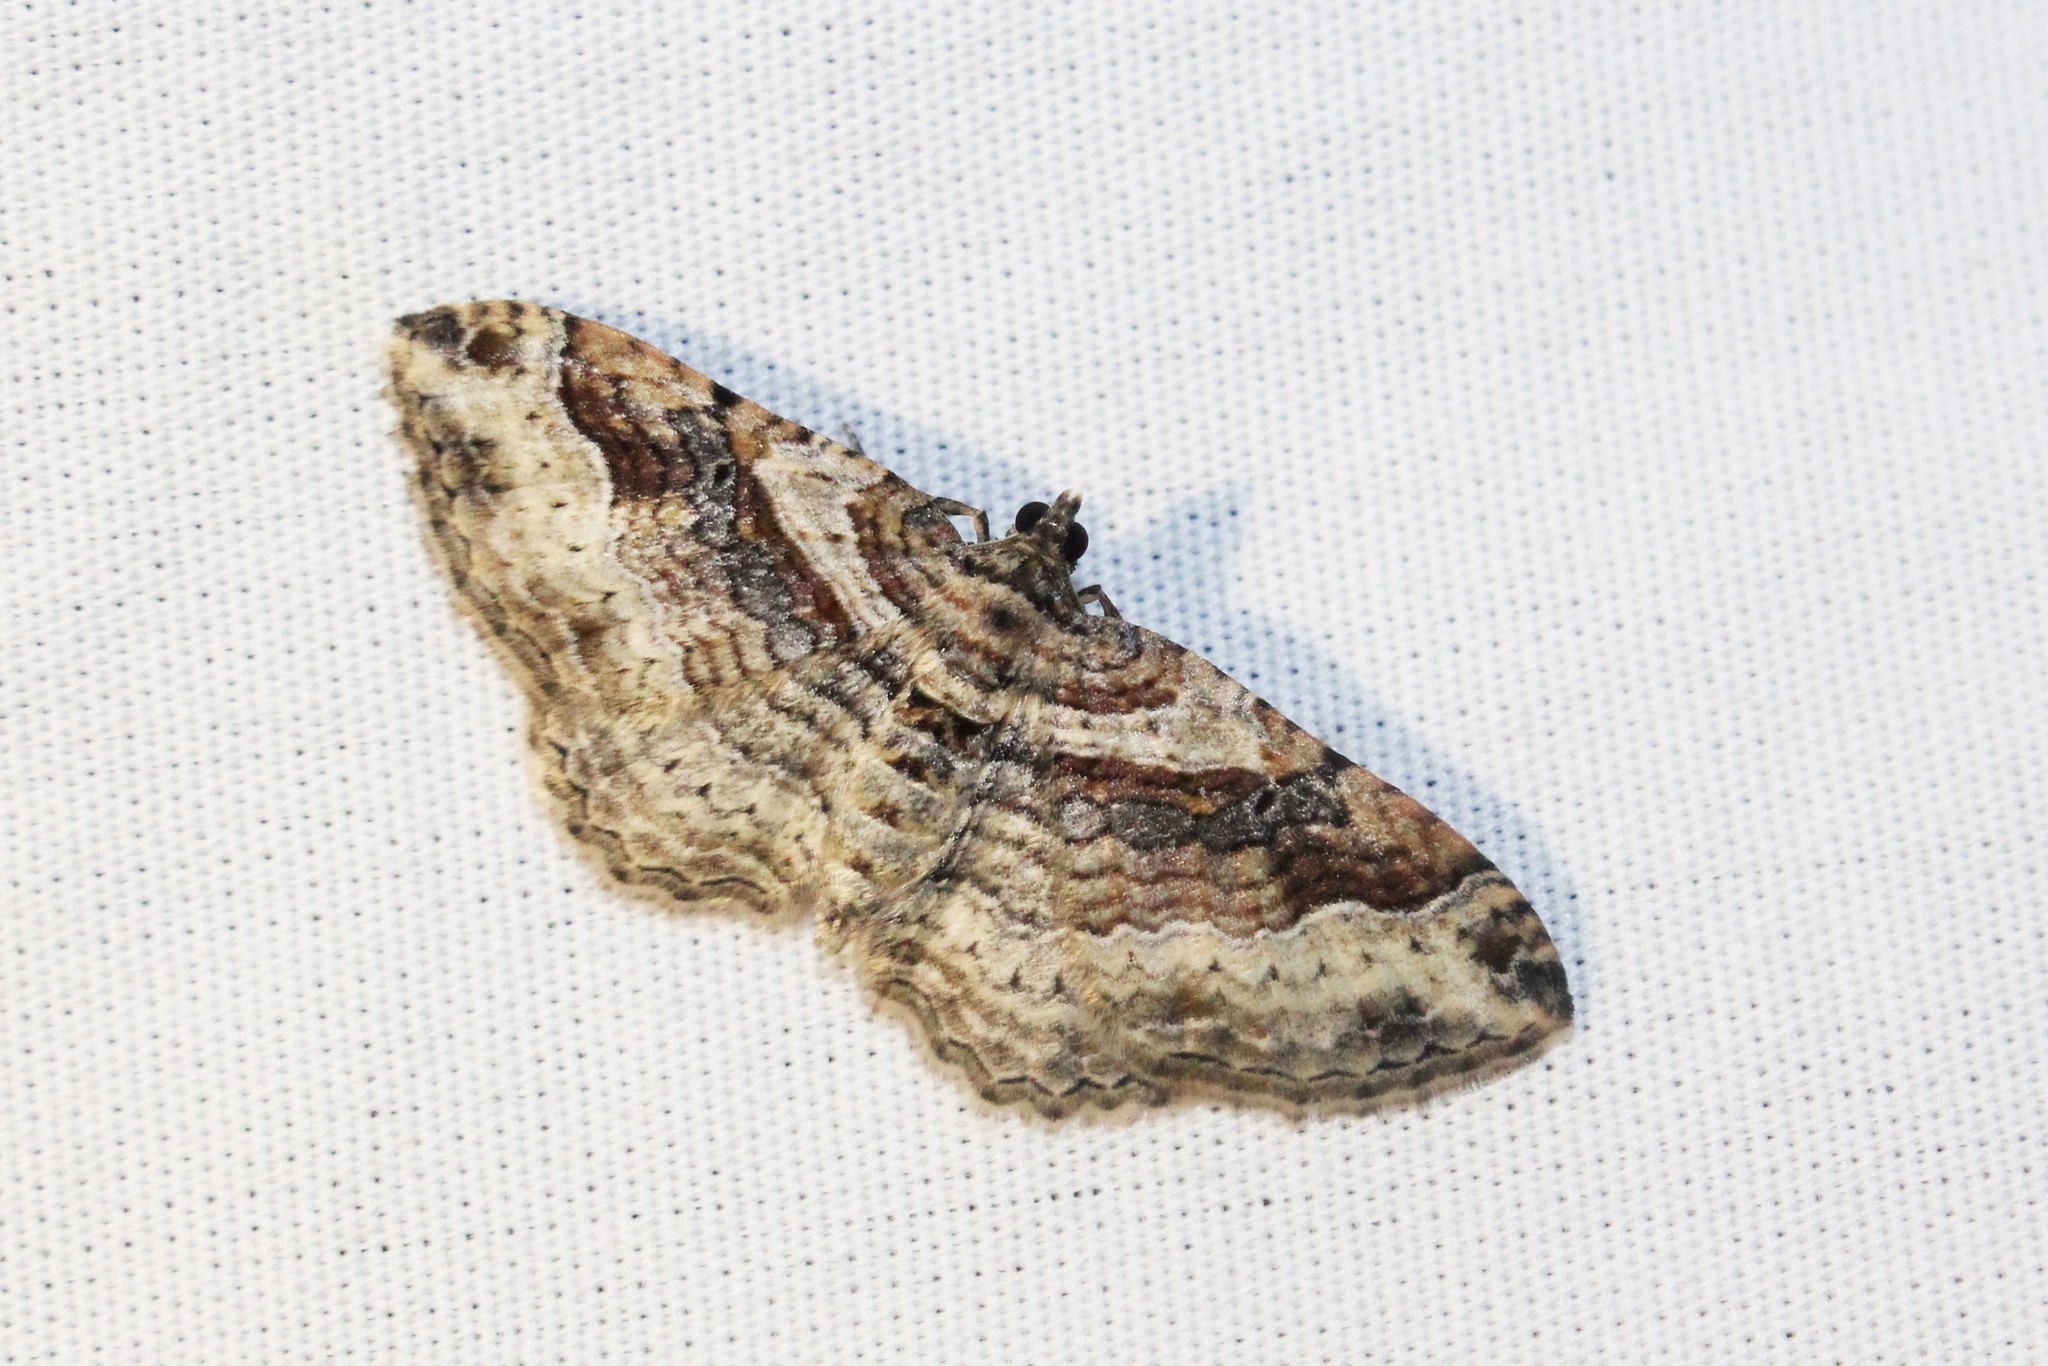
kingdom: Animalia
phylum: Arthropoda
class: Insecta
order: Lepidoptera
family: Geometridae
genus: Costaconvexa
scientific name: Costaconvexa centrostrigaria
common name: Bent-line carpet
